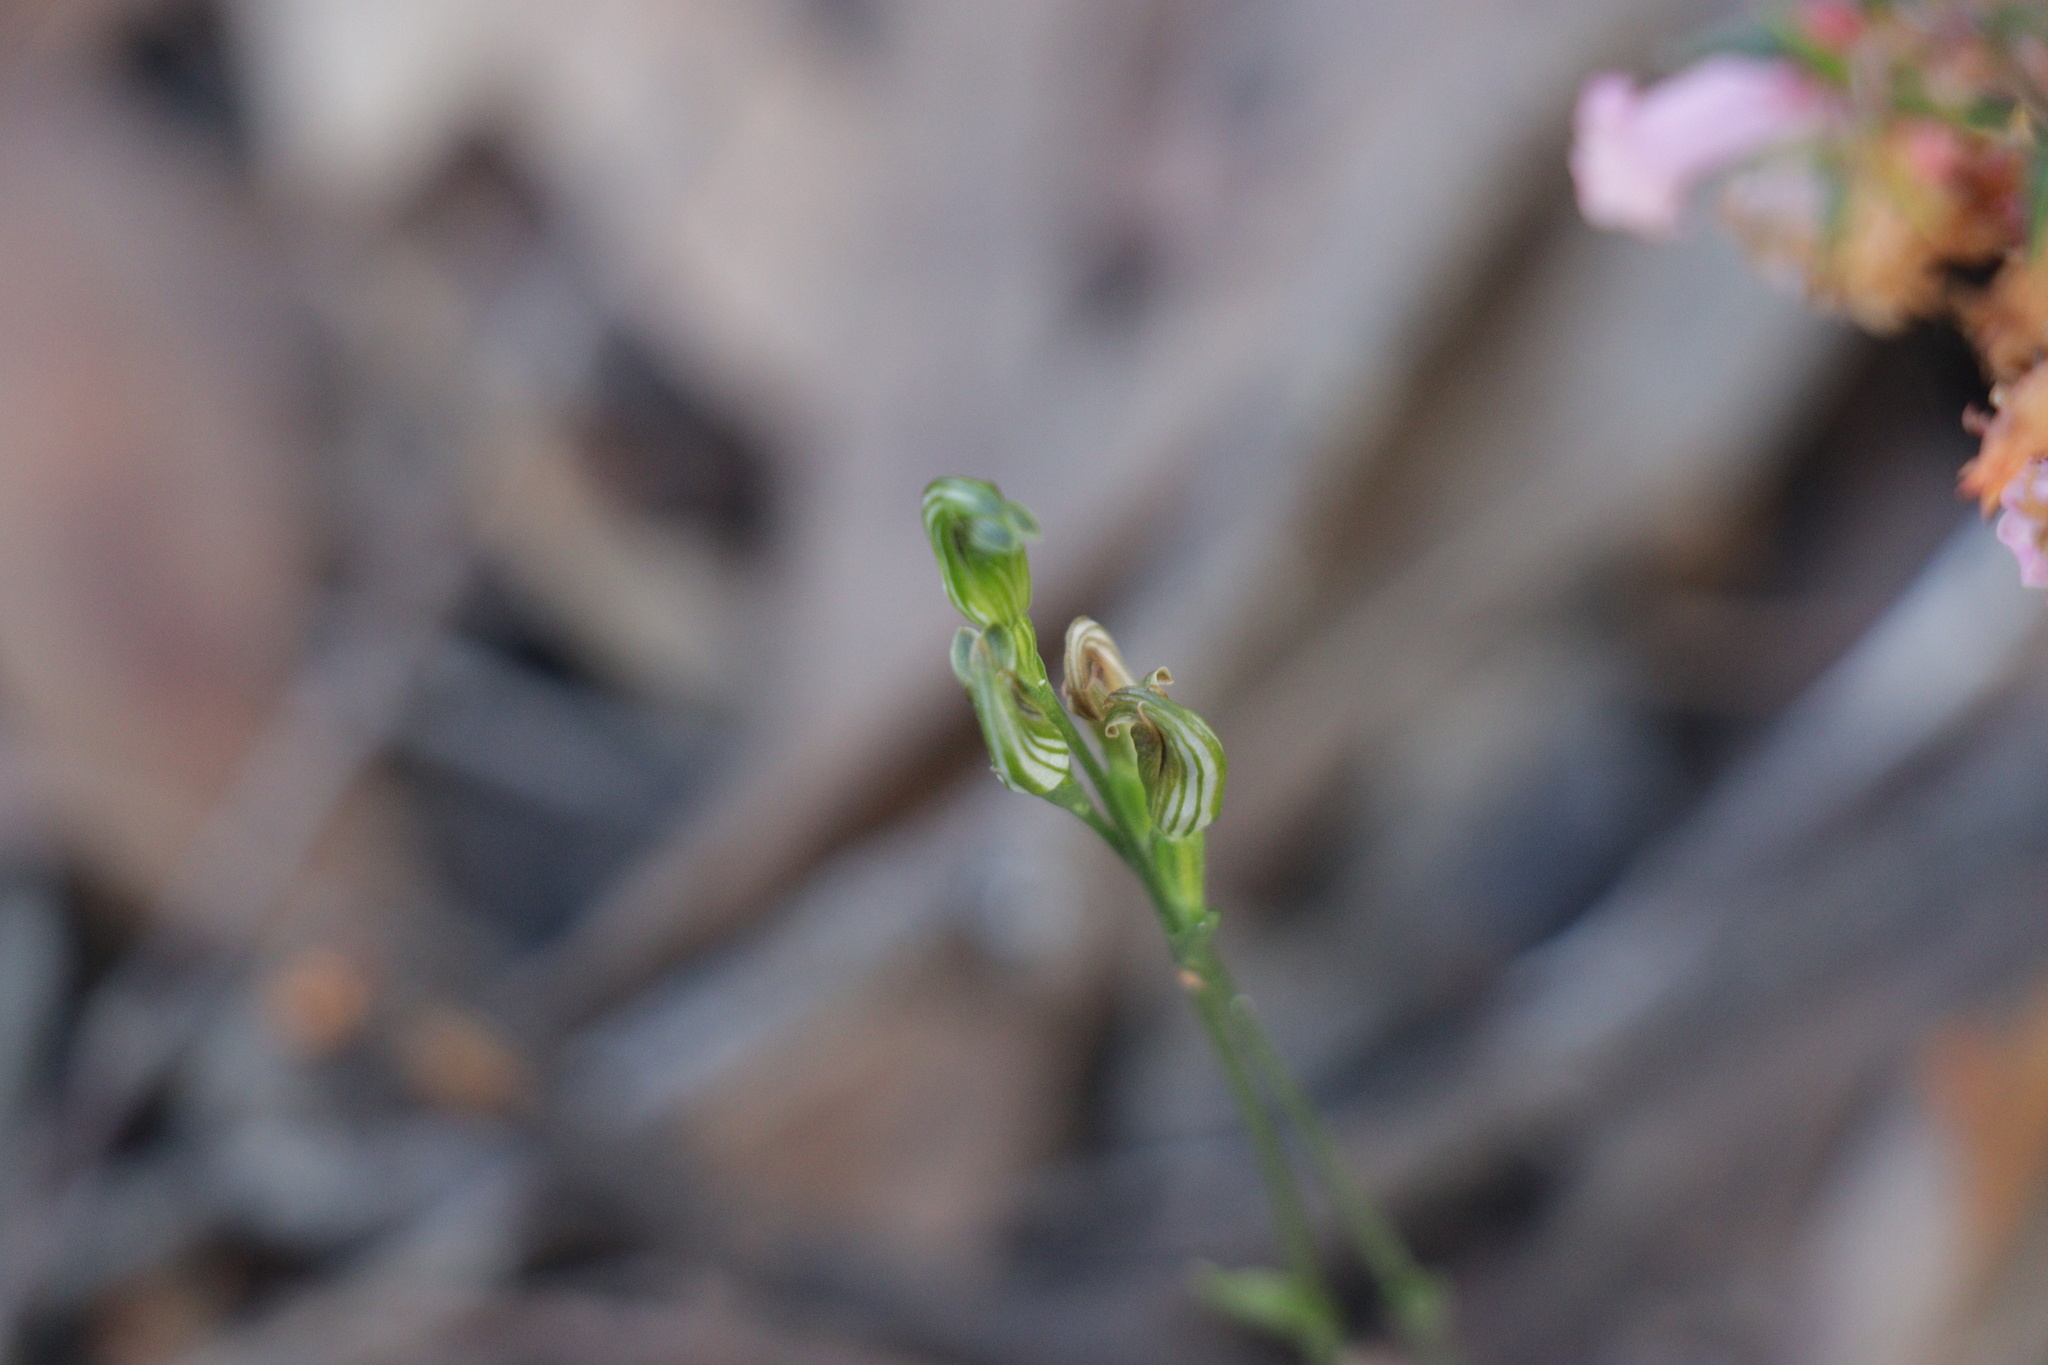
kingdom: Plantae
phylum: Tracheophyta
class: Liliopsida
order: Asparagales
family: Orchidaceae
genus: Pterostylis
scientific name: Pterostylis parviflora
